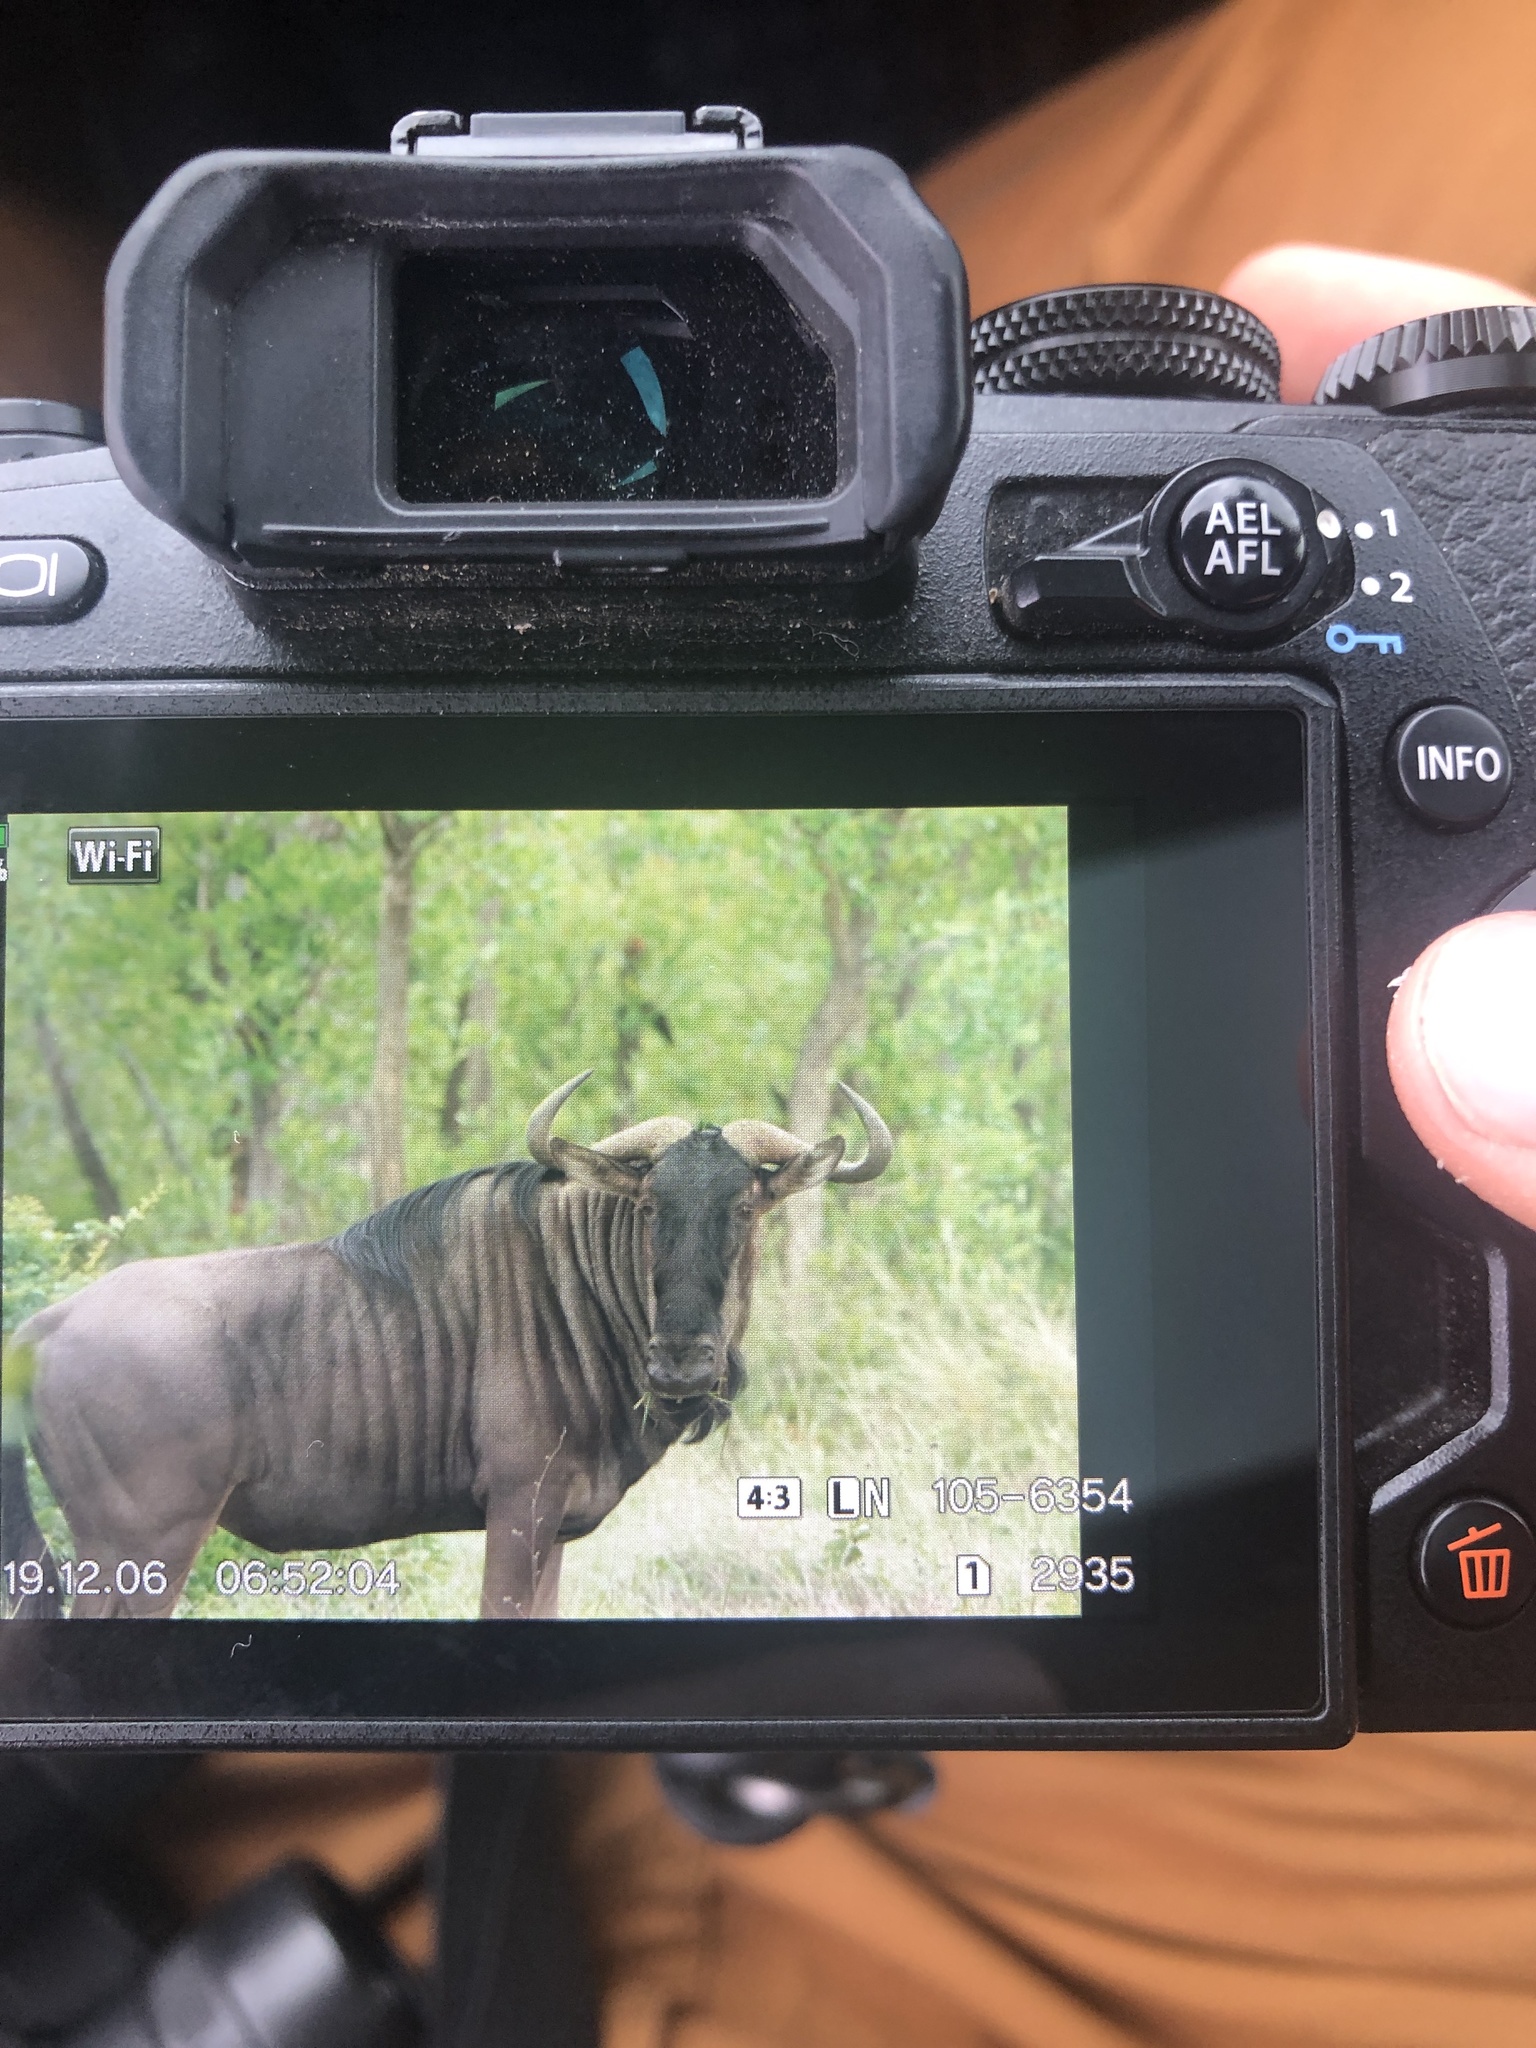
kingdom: Animalia
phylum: Chordata
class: Mammalia
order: Artiodactyla
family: Bovidae
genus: Connochaetes
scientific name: Connochaetes taurinus
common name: Blue wildebeest
